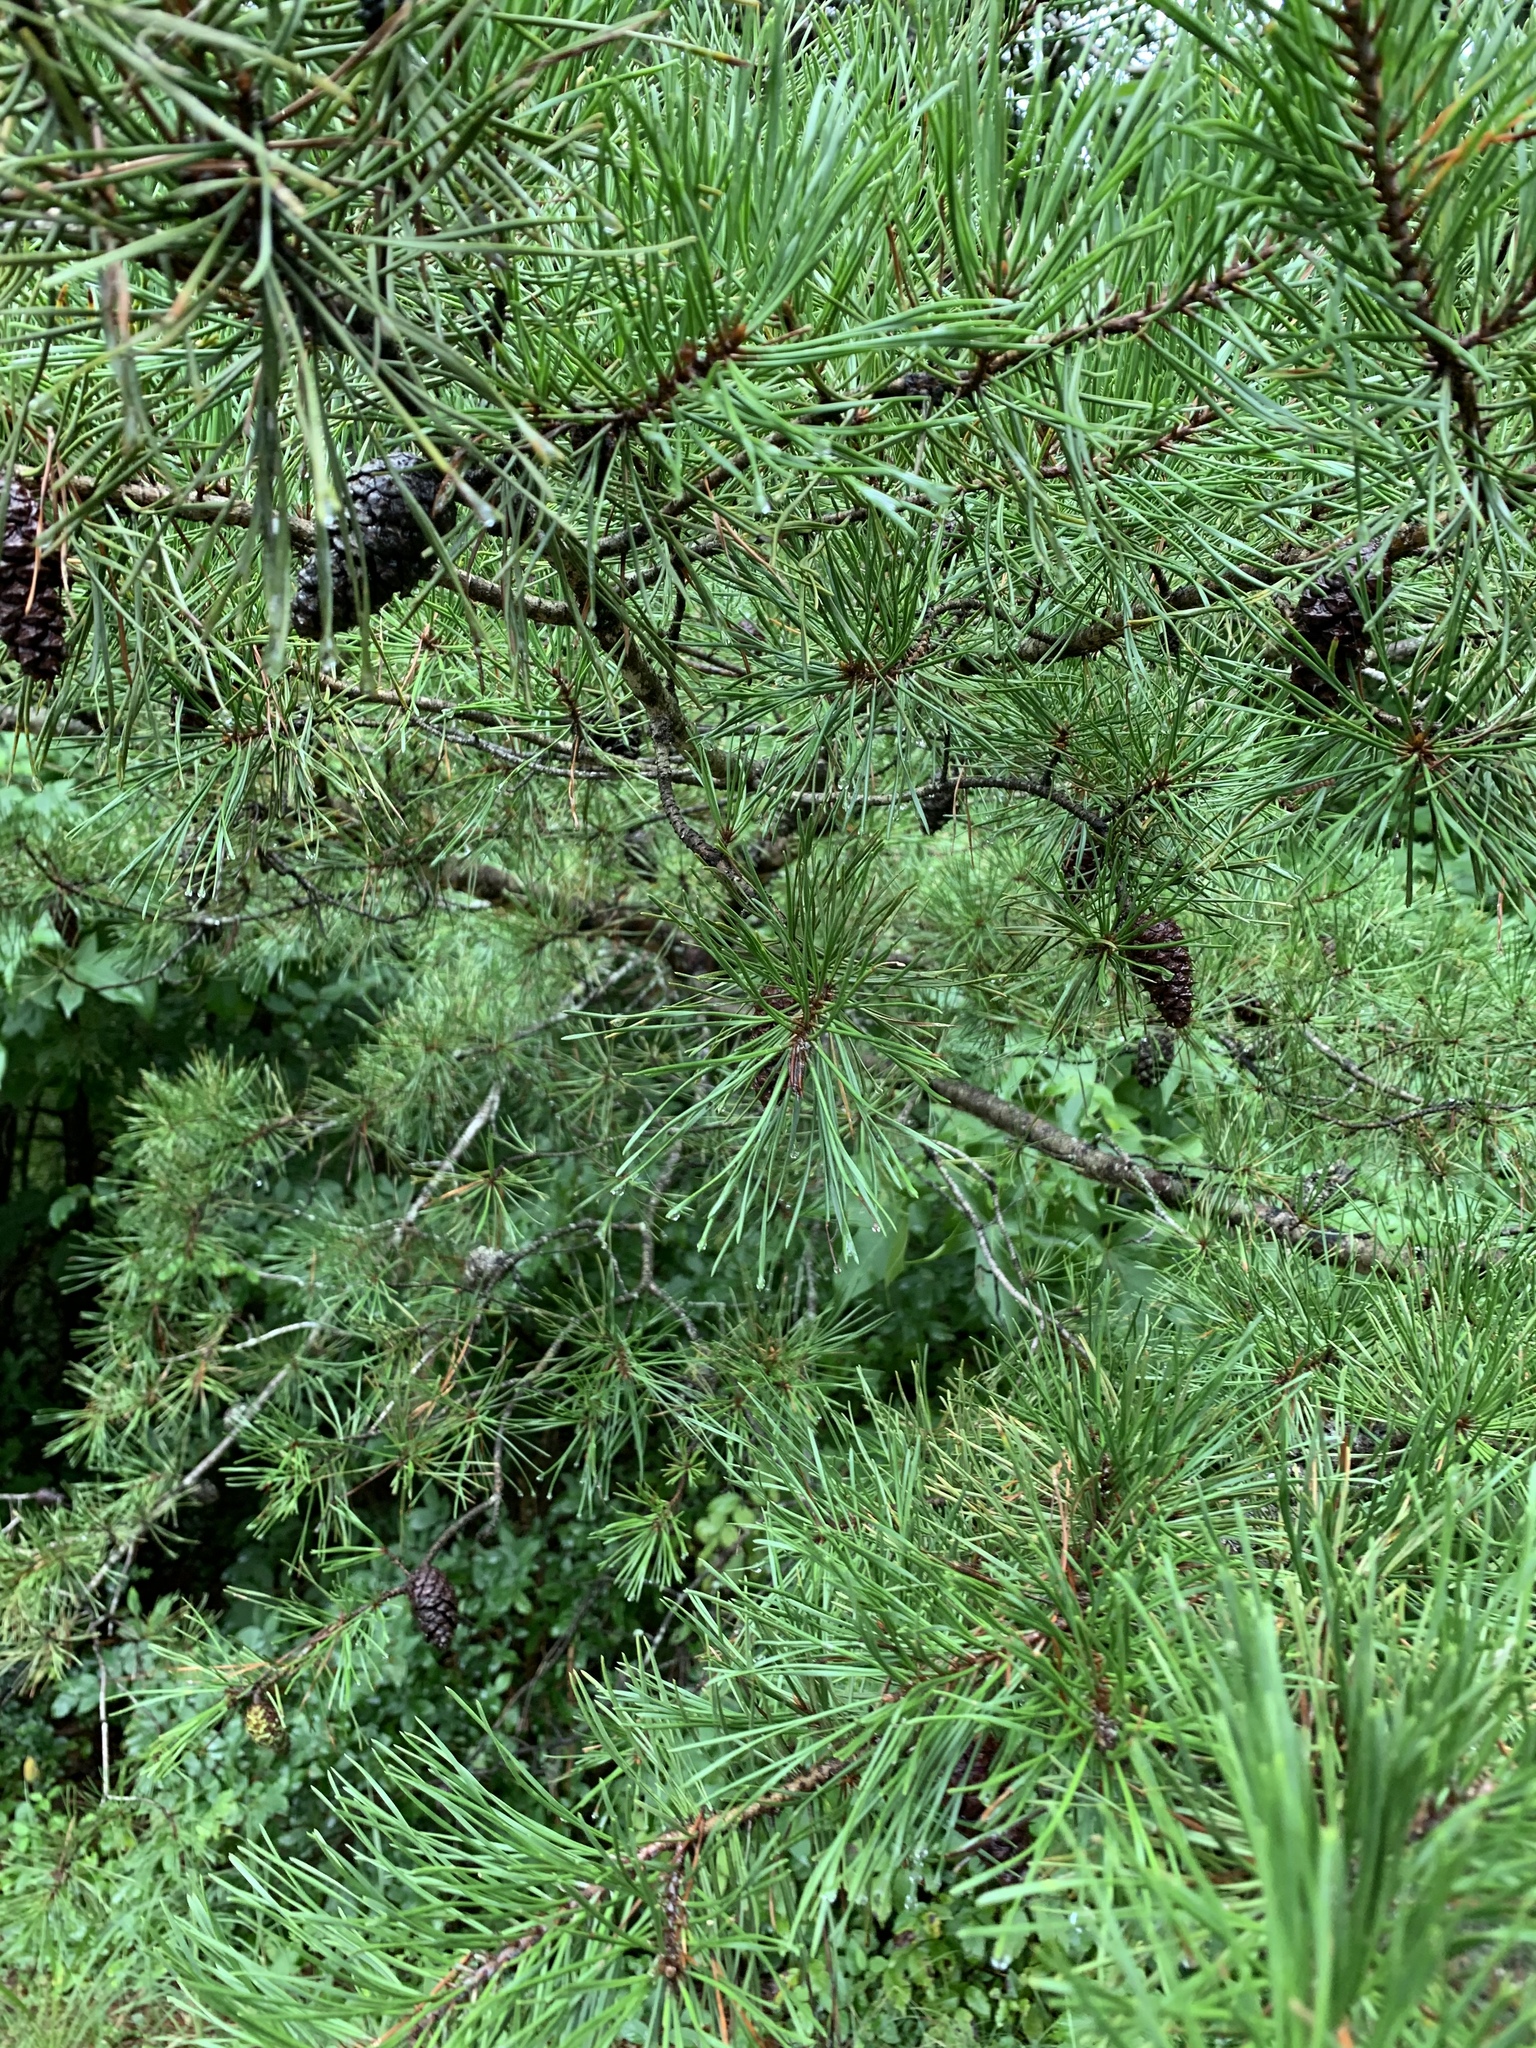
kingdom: Plantae
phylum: Tracheophyta
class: Pinopsida
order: Pinales
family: Pinaceae
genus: Pinus
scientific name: Pinus virginiana
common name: Scrub pine
